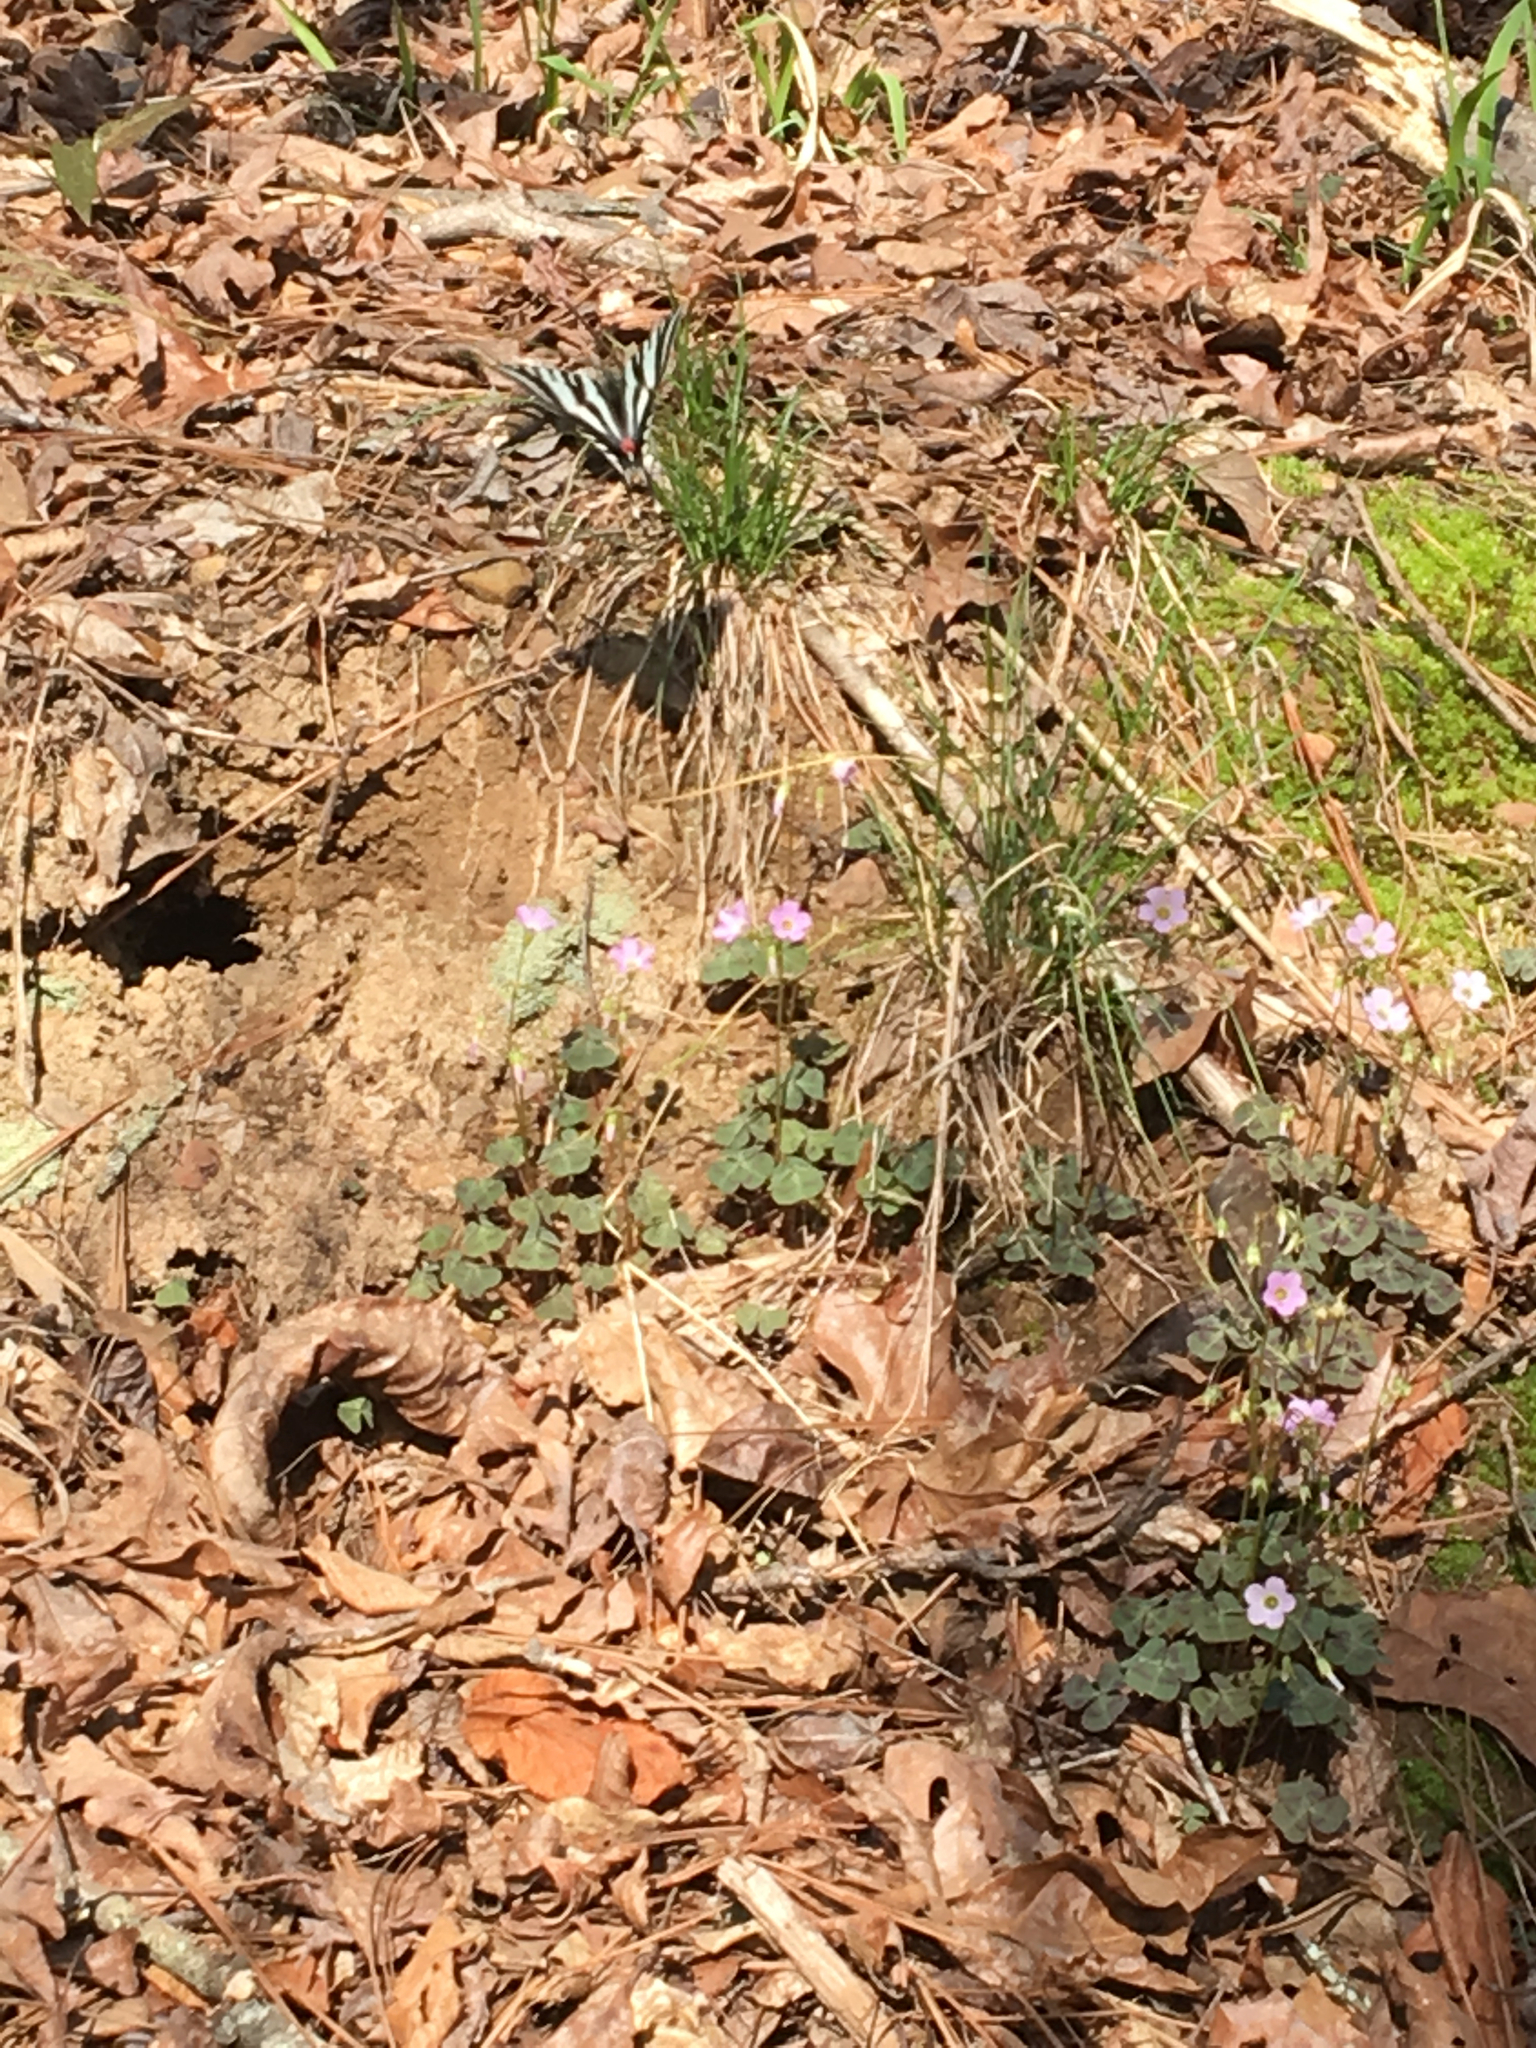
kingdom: Animalia
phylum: Arthropoda
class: Insecta
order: Lepidoptera
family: Papilionidae
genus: Protographium
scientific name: Protographium marcellus
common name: Zebra swallowtail
